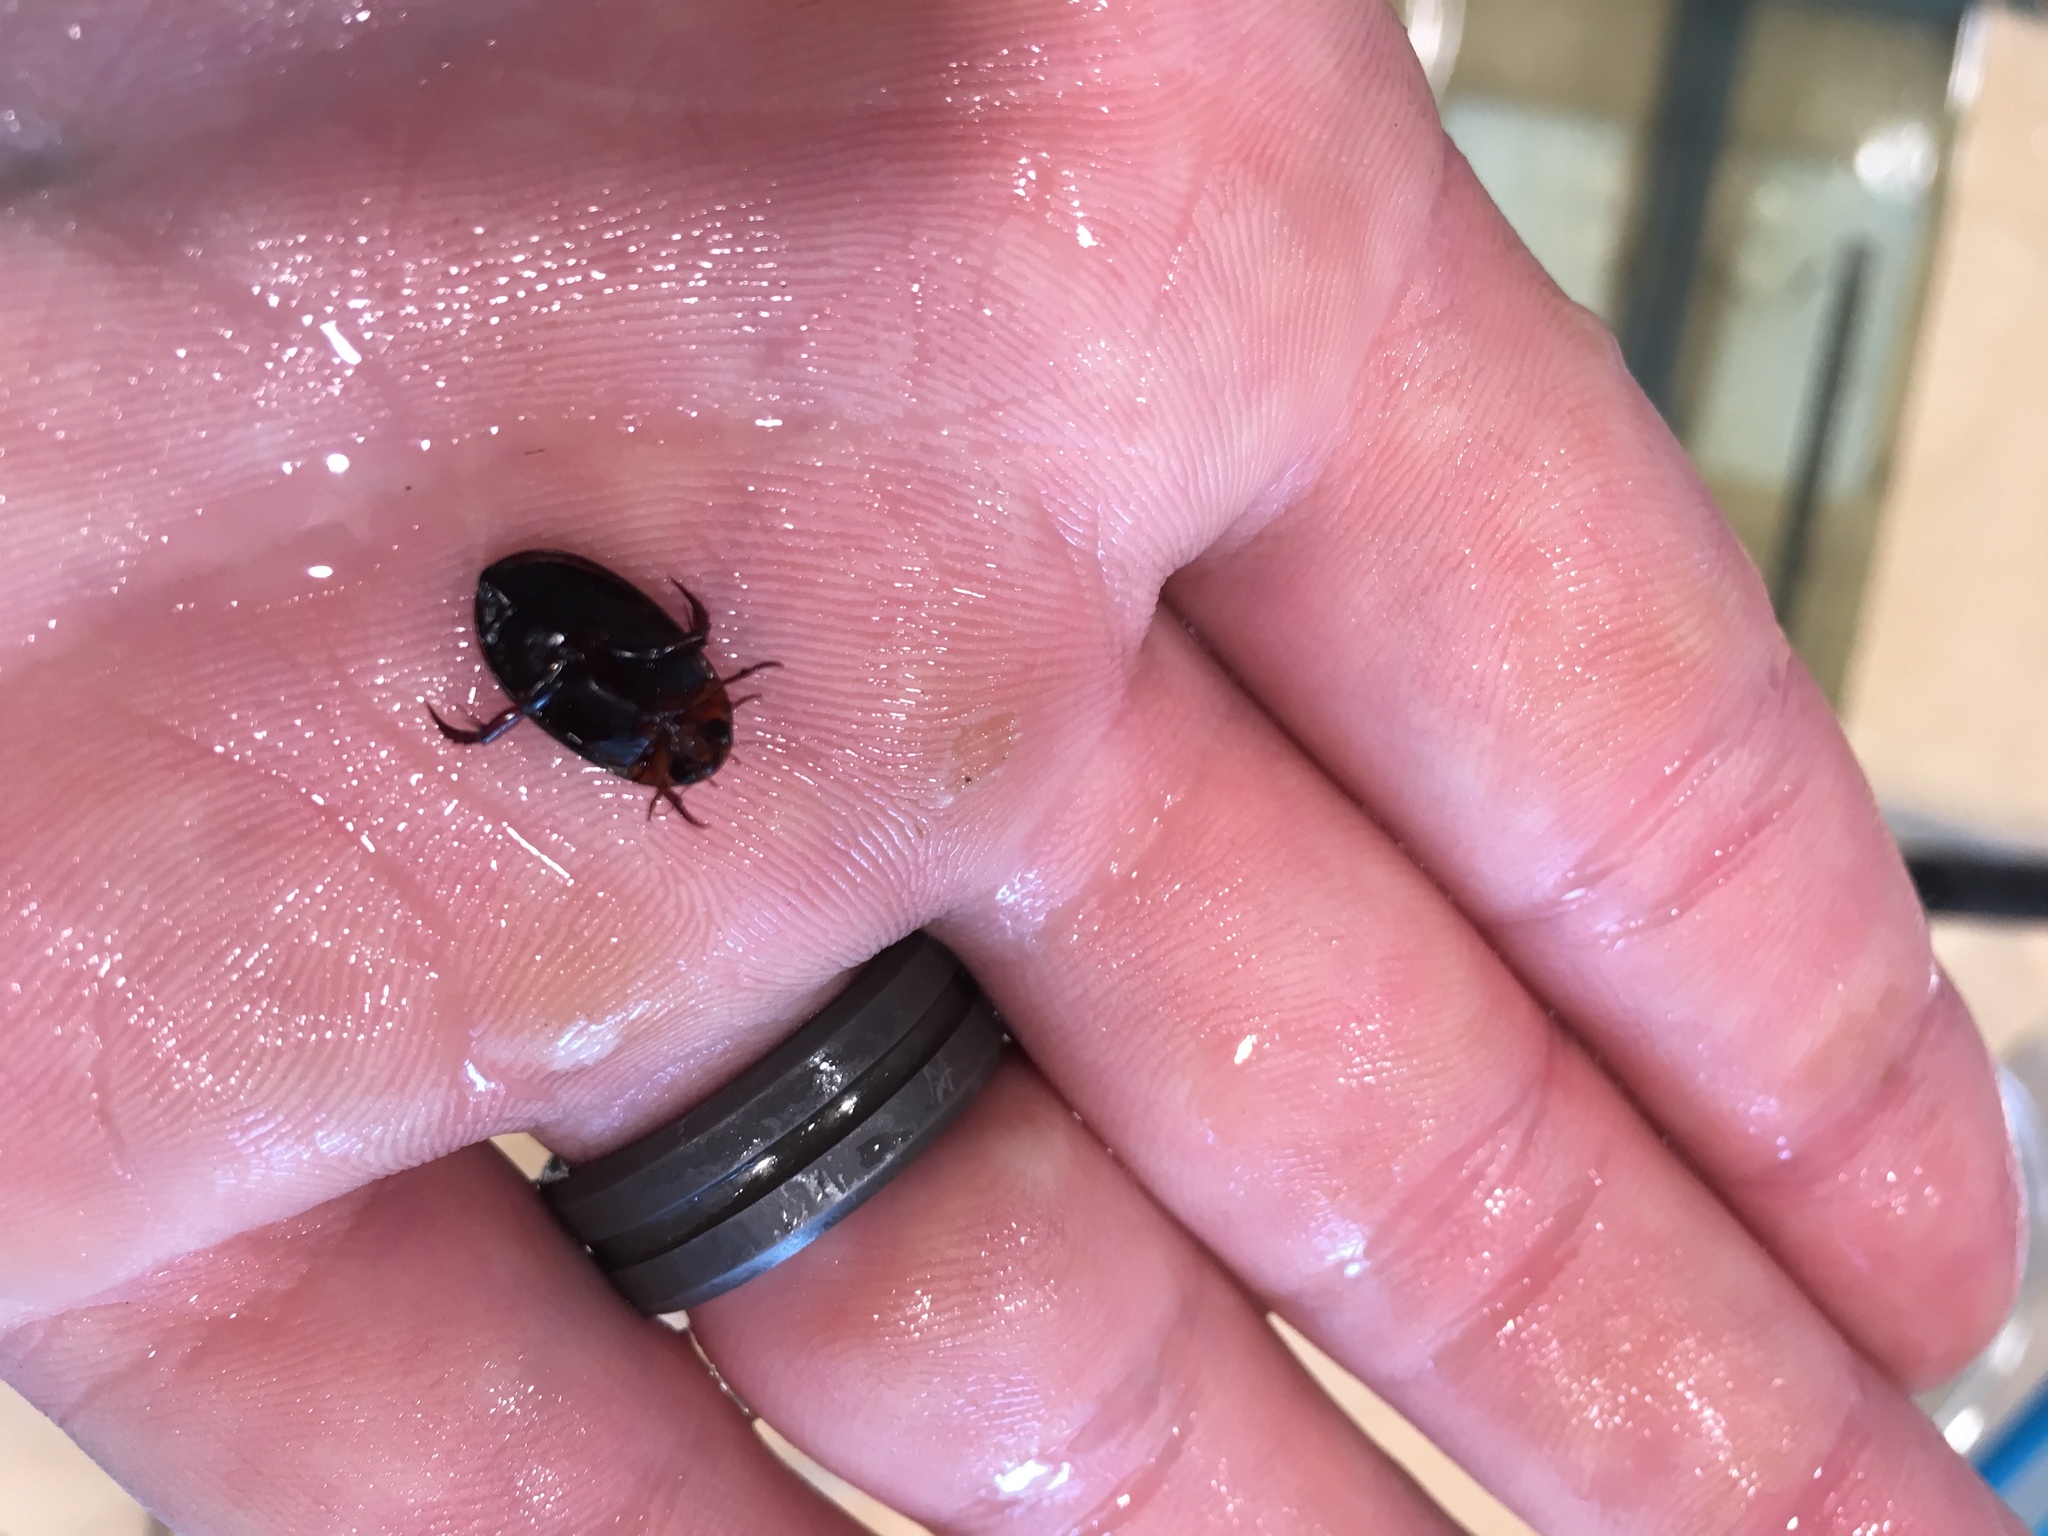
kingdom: Animalia
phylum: Arthropoda
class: Insecta
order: Coleoptera
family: Dytiscidae
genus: Hydaticus
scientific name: Hydaticus bimarginatus
